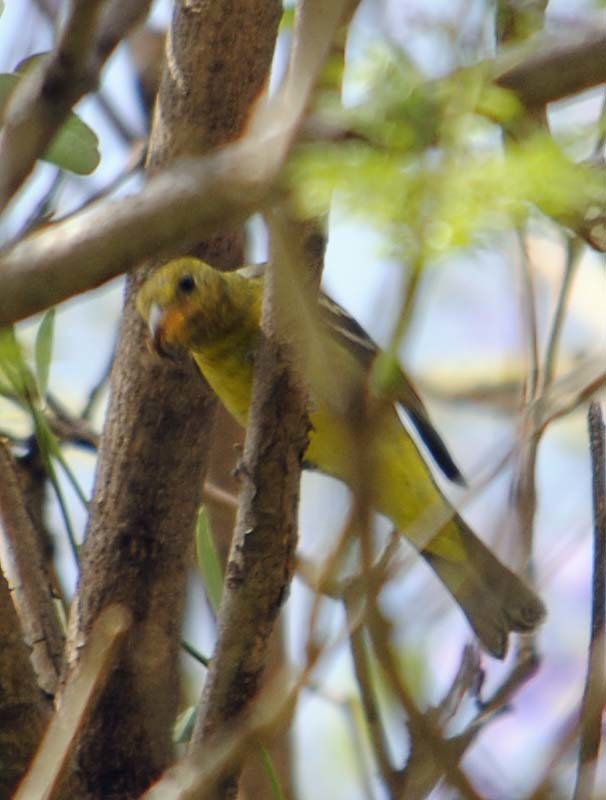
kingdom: Animalia
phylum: Chordata
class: Aves
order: Passeriformes
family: Cardinalidae
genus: Piranga
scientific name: Piranga ludoviciana
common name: Western tanager
